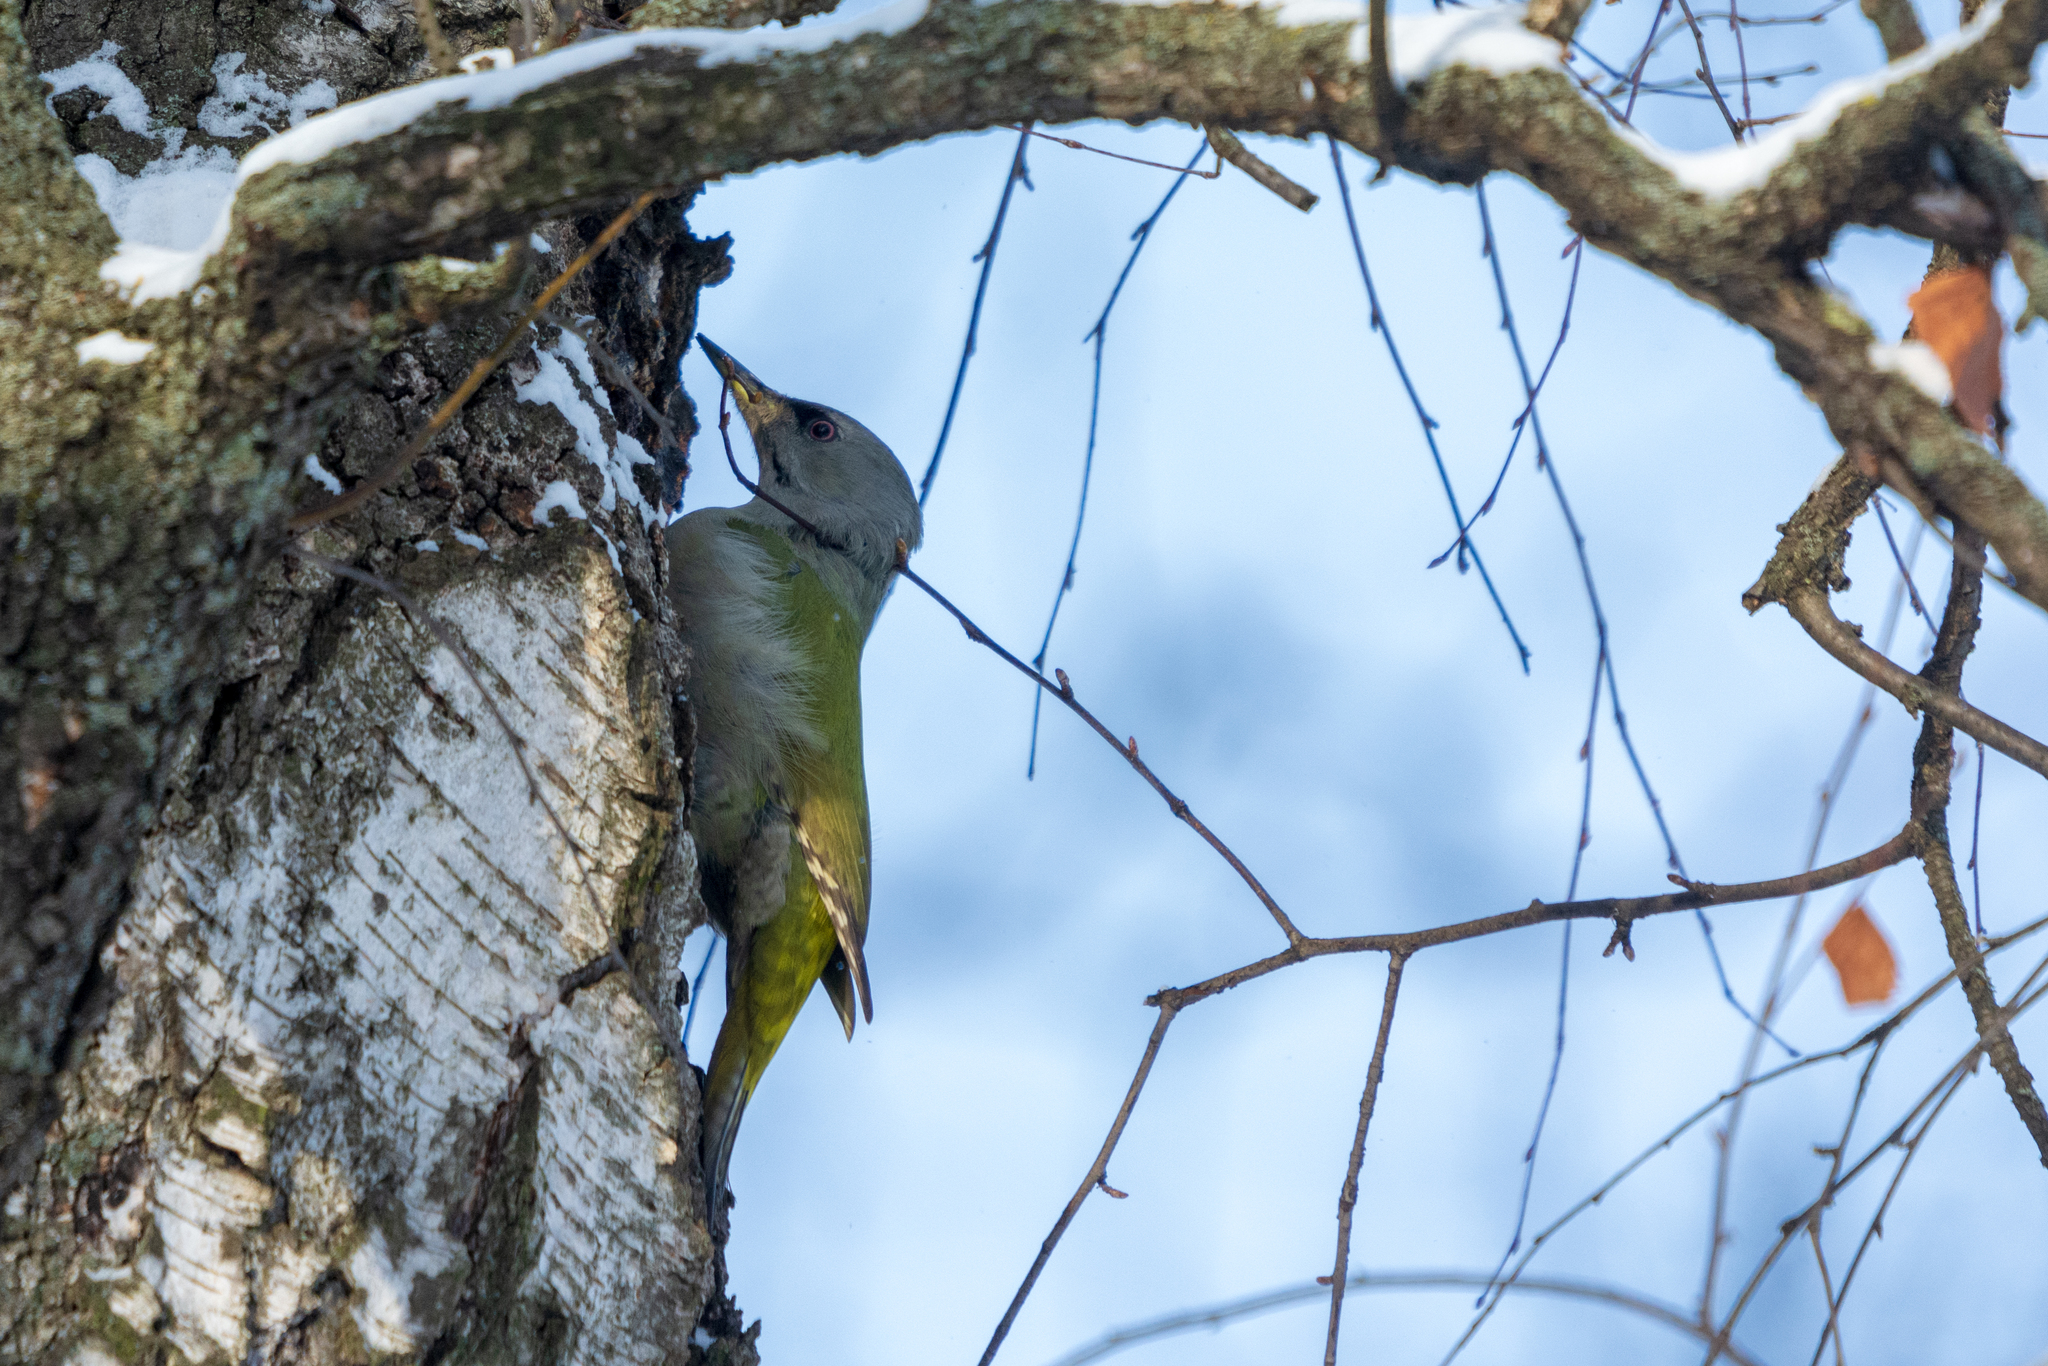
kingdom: Animalia
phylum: Chordata
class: Aves
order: Piciformes
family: Picidae
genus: Picus
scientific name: Picus canus
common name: Grey-headed woodpecker
